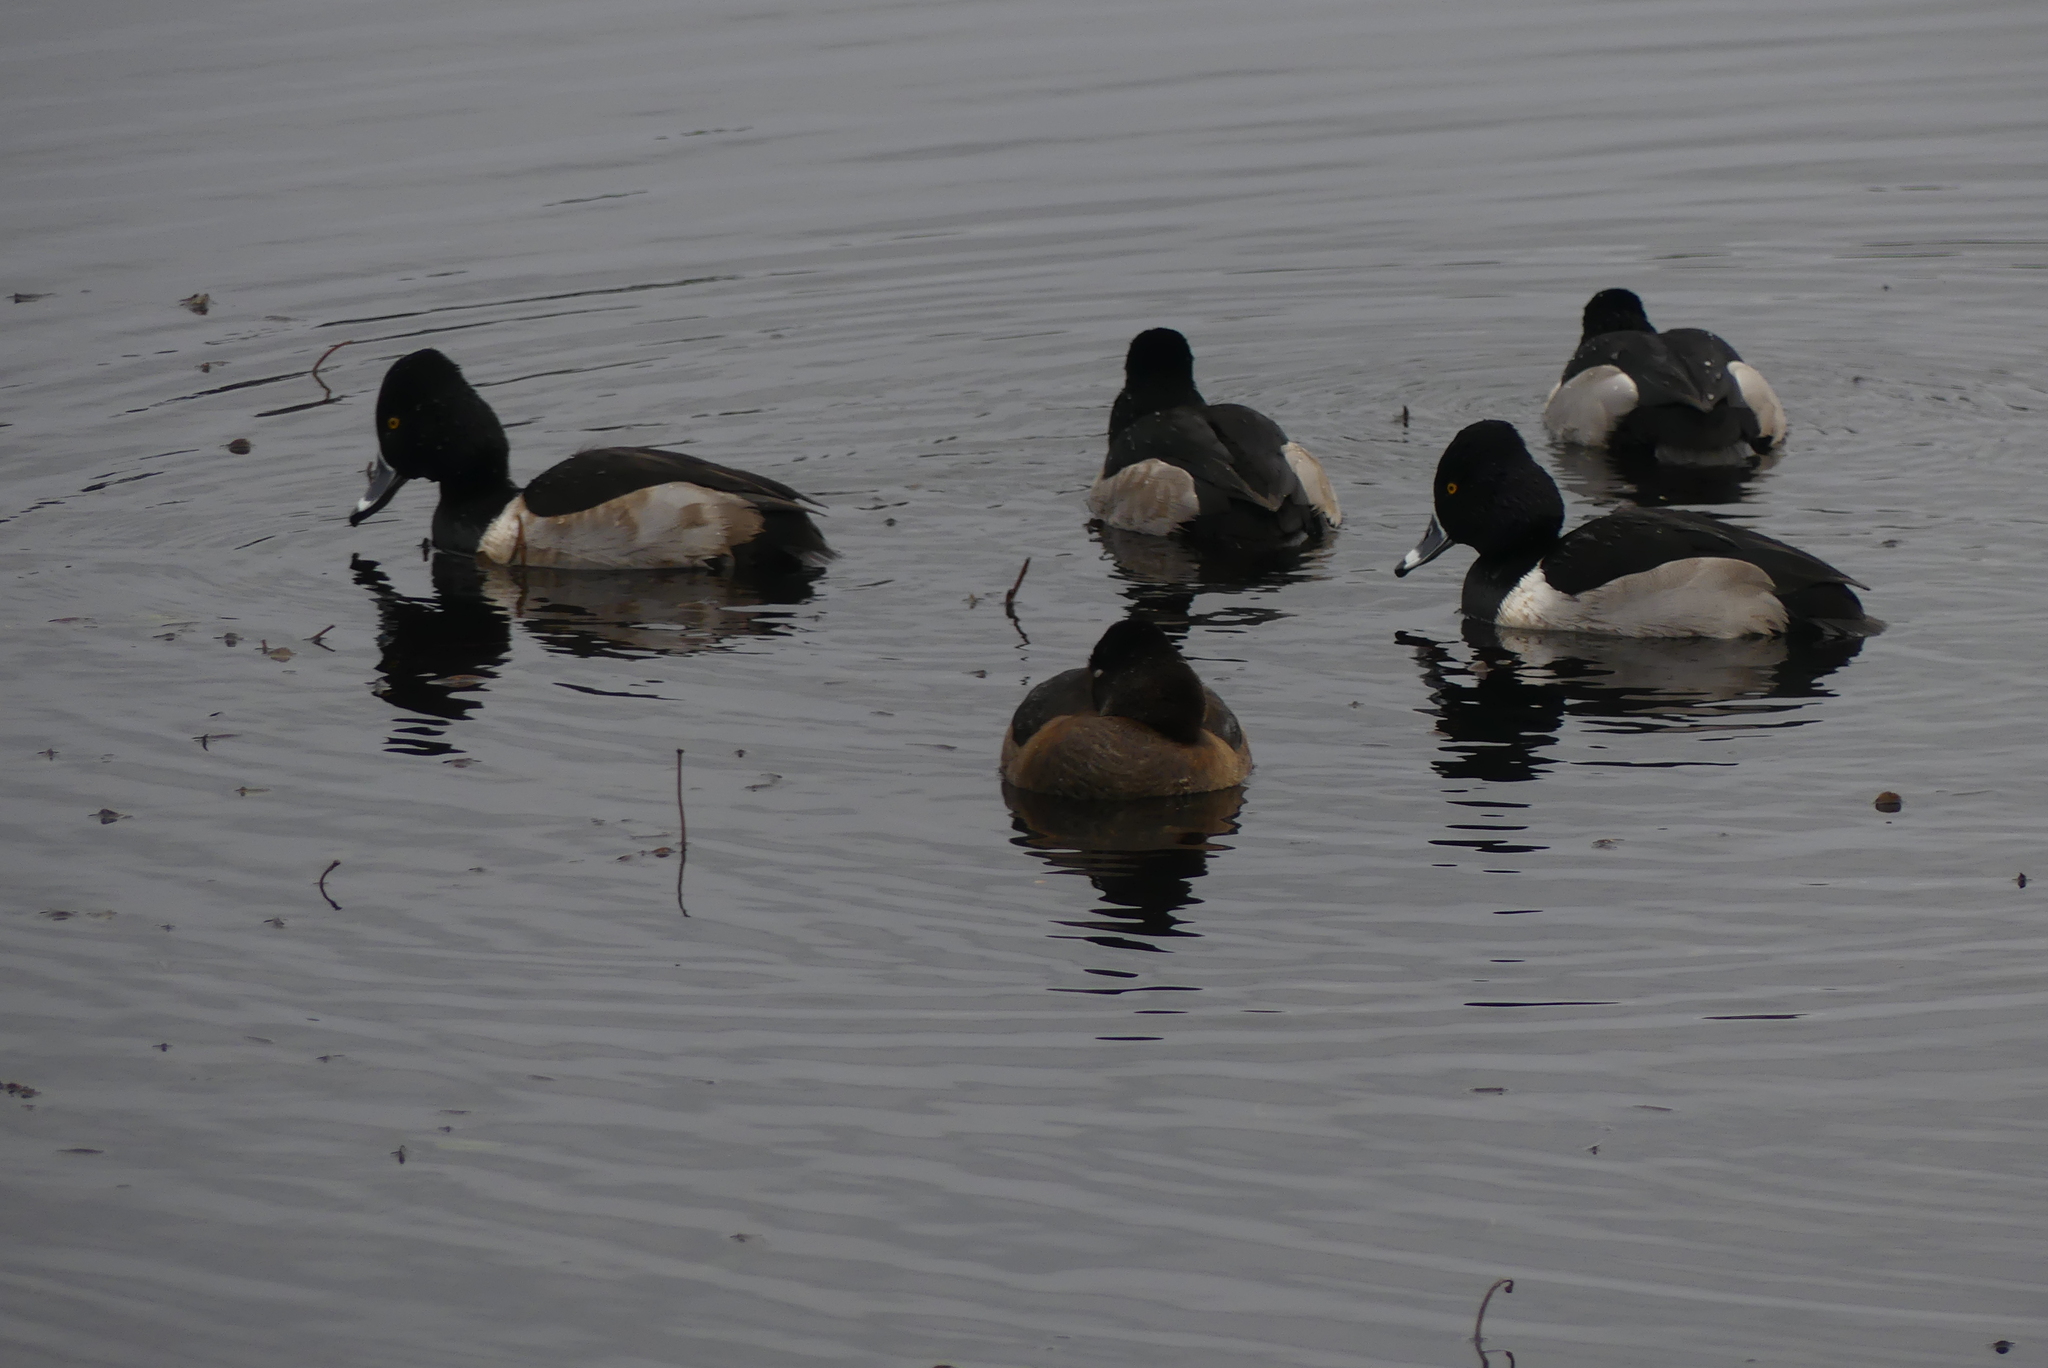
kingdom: Animalia
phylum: Chordata
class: Aves
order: Anseriformes
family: Anatidae
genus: Aythya
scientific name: Aythya collaris
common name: Ring-necked duck
